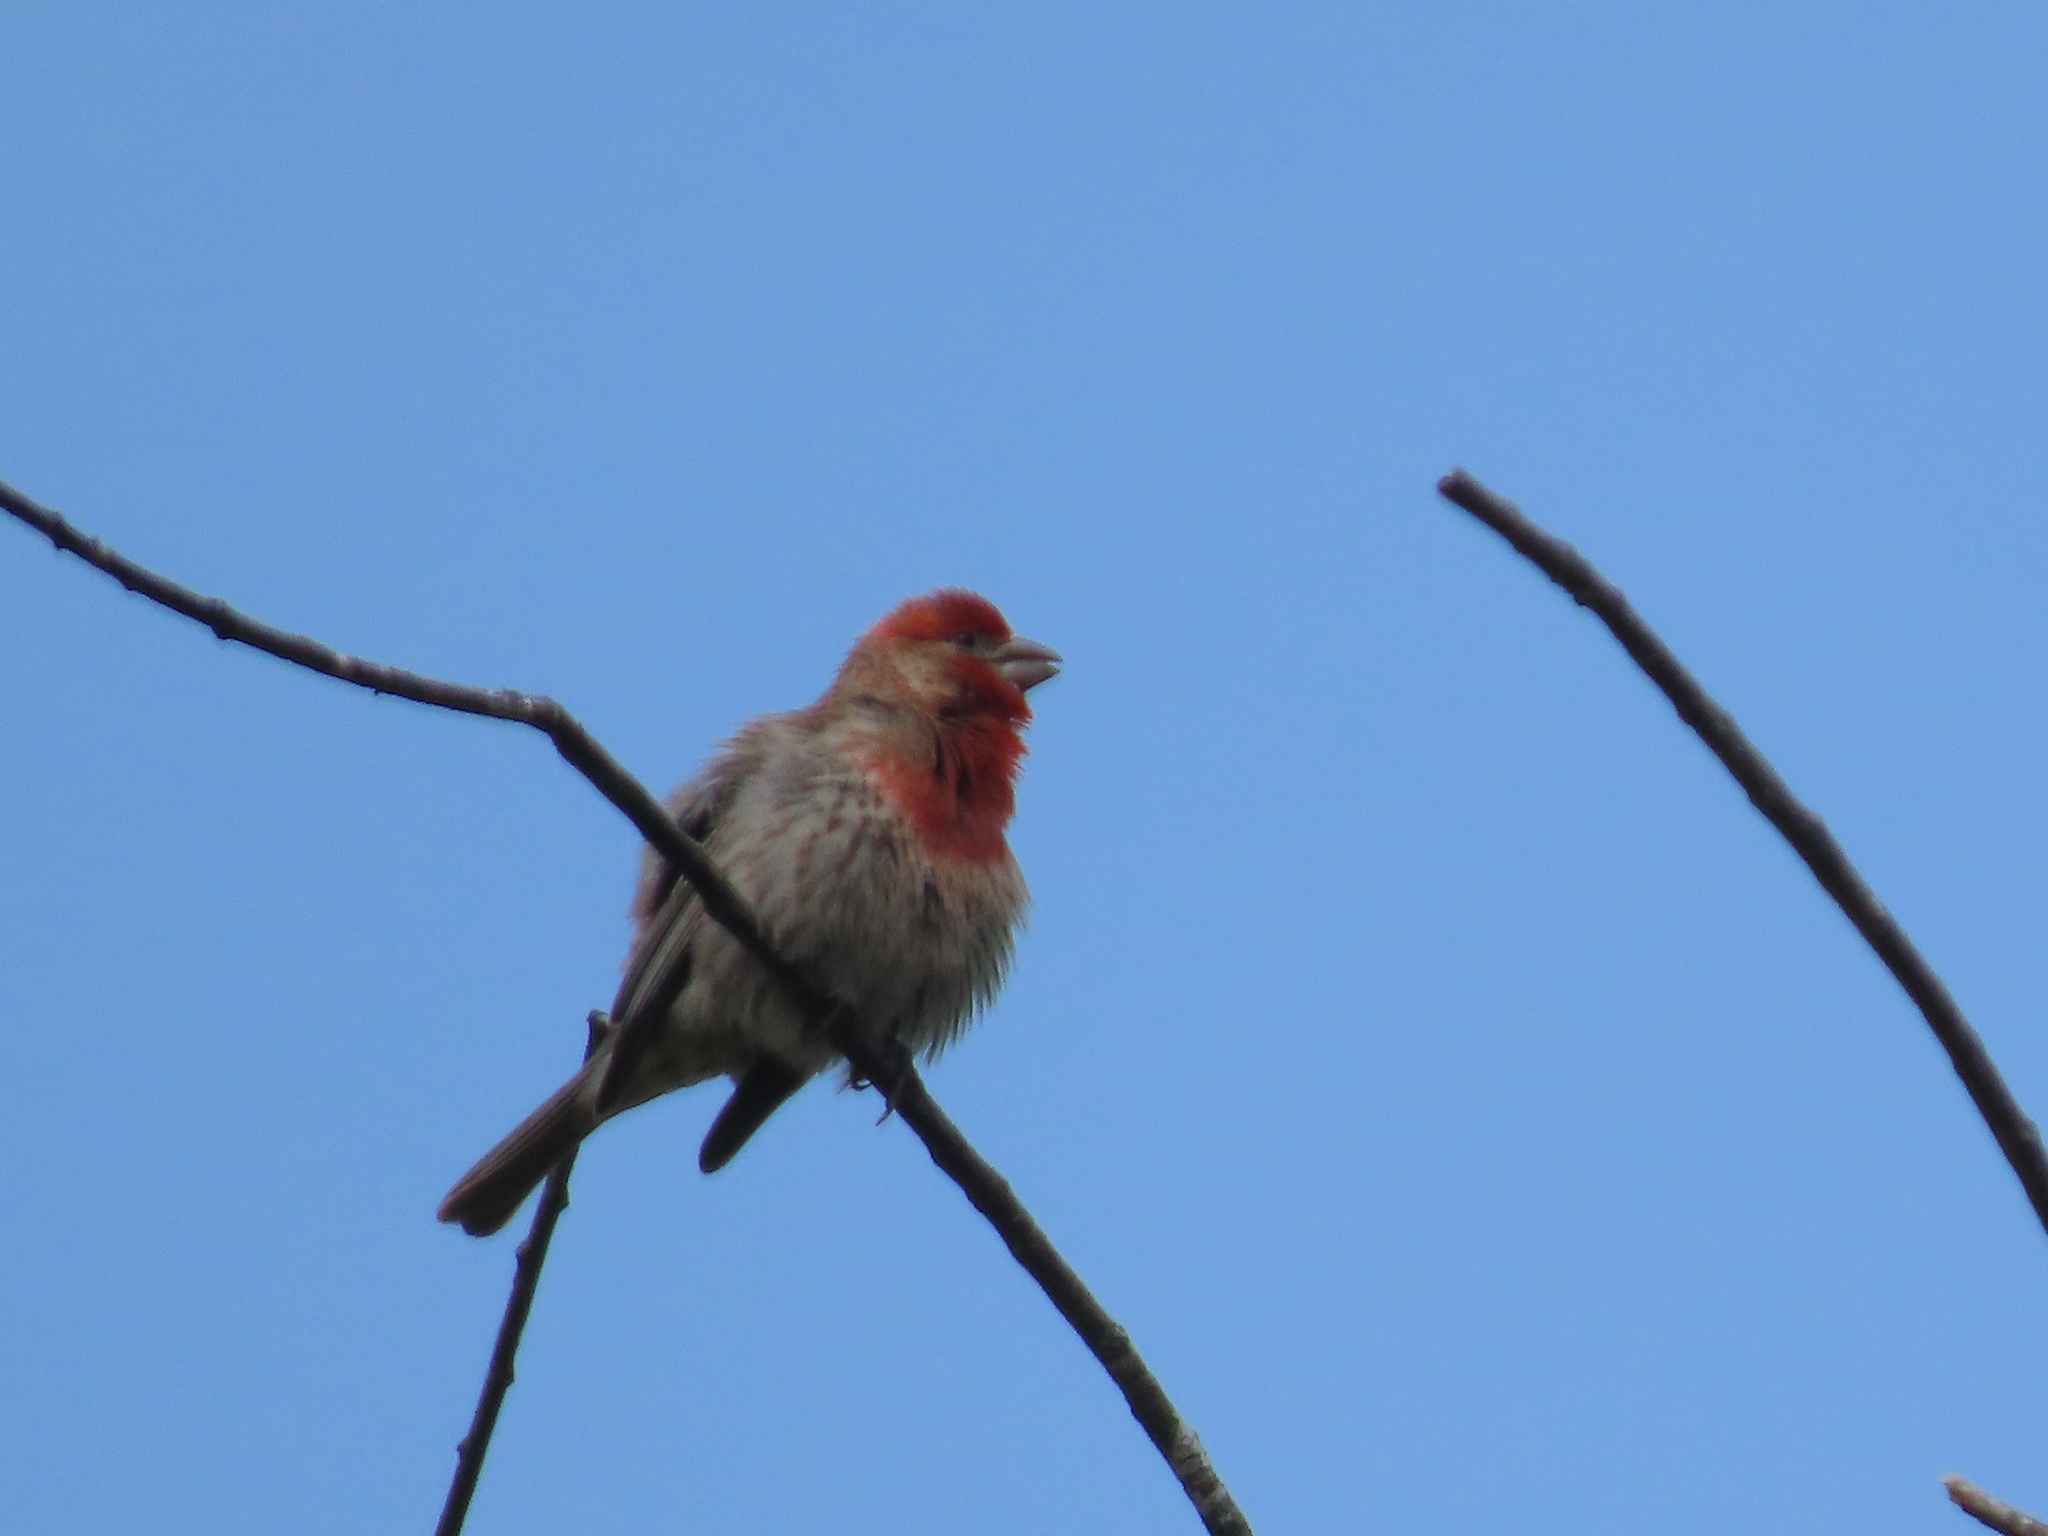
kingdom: Animalia
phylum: Chordata
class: Aves
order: Passeriformes
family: Fringillidae
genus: Haemorhous
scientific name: Haemorhous mexicanus
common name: House finch
